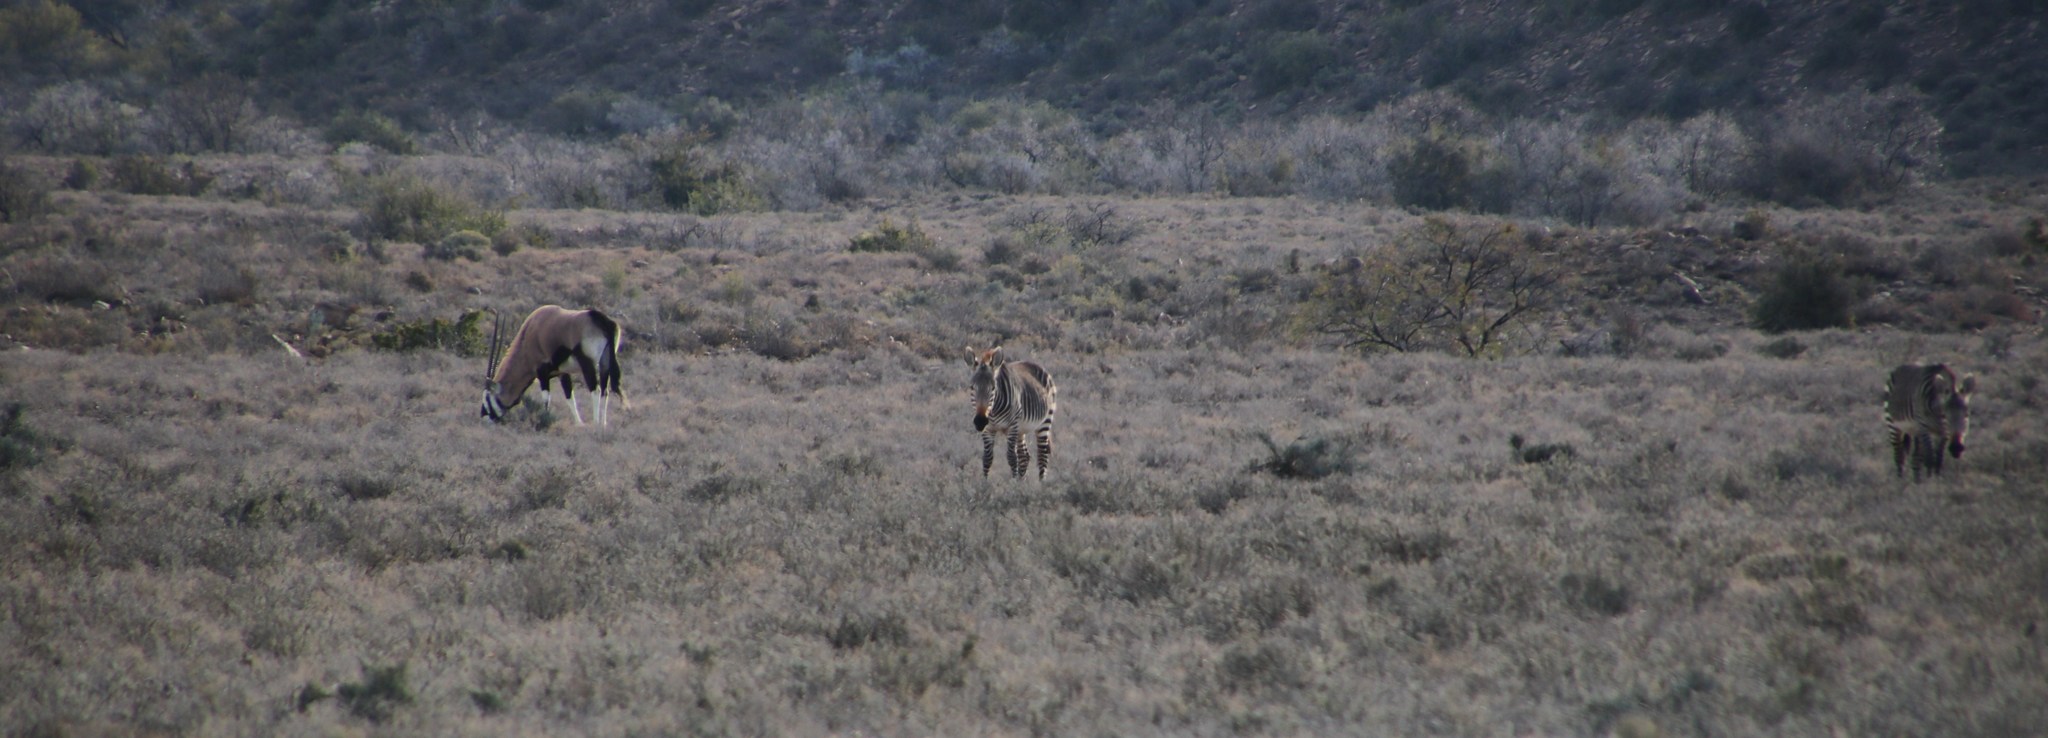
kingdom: Animalia
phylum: Chordata
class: Mammalia
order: Perissodactyla
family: Equidae
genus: Equus
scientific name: Equus zebra
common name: Mountain zebra
